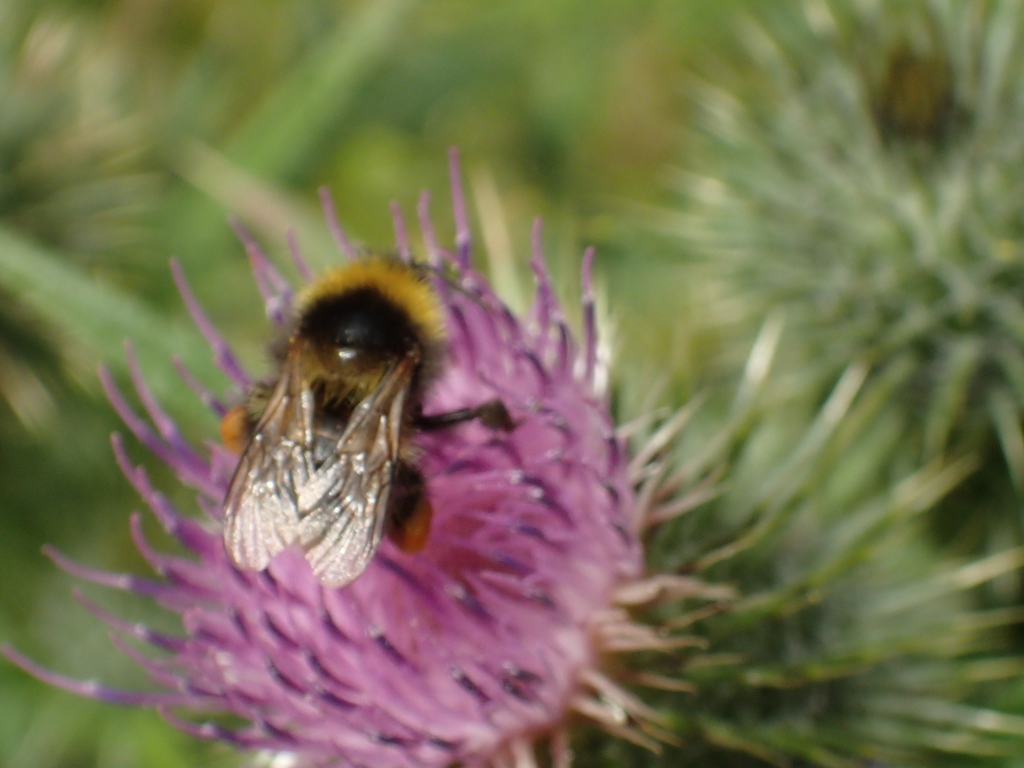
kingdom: Animalia
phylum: Arthropoda
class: Insecta
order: Hymenoptera
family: Apidae
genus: Megabombus
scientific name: Megabombus
